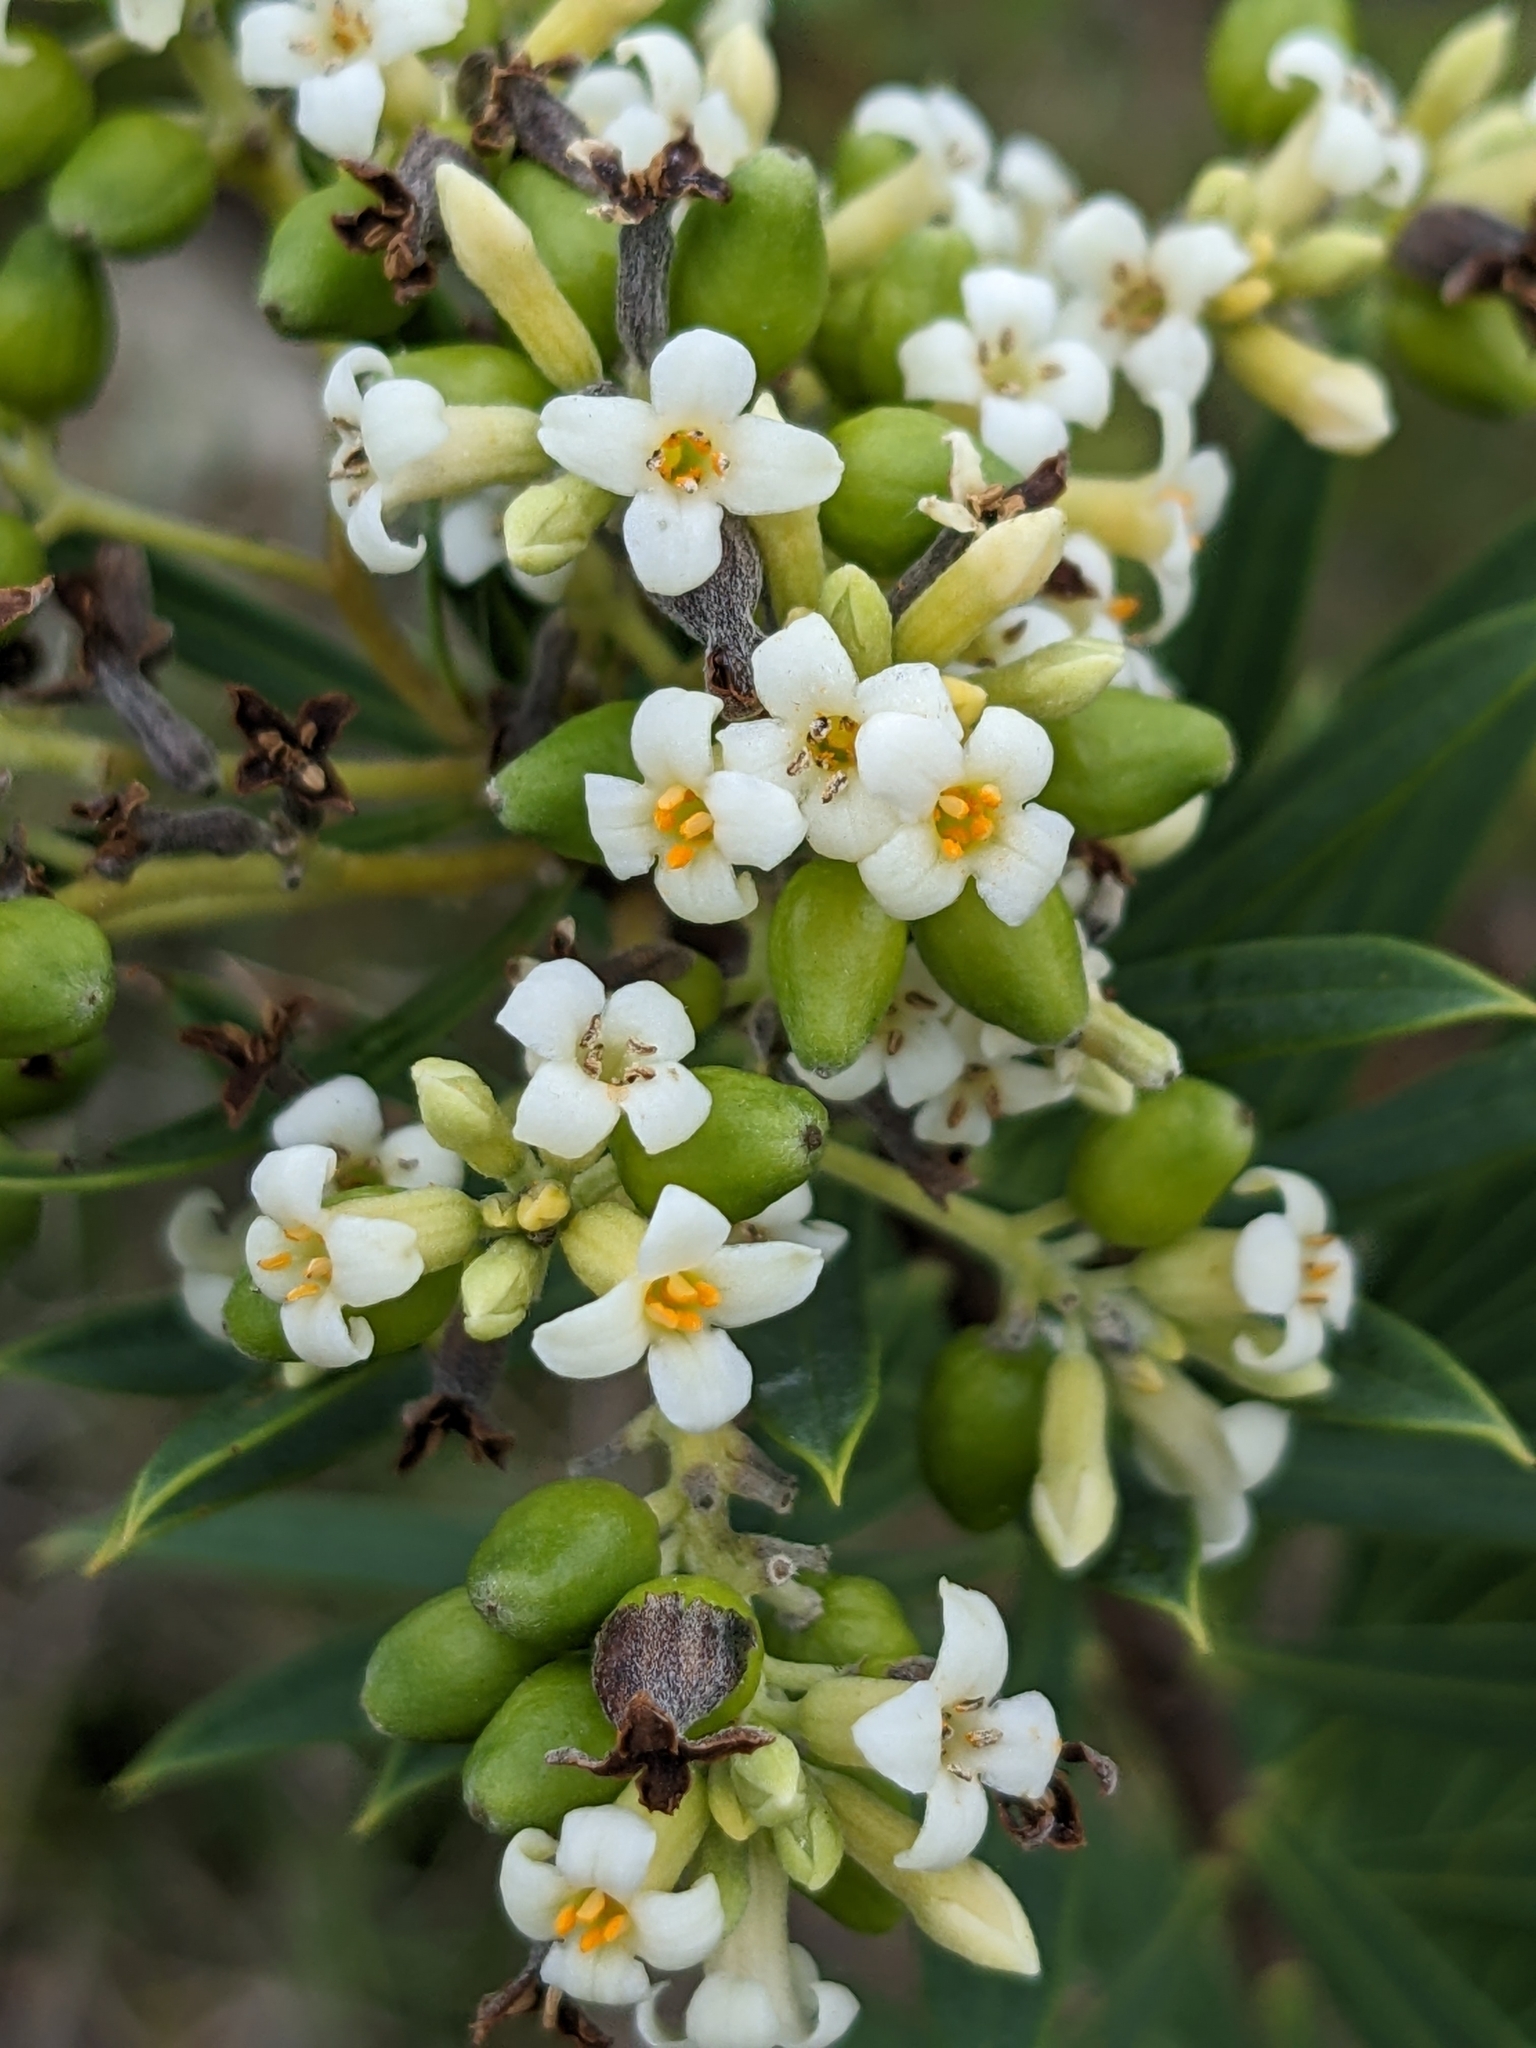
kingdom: Plantae
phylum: Tracheophyta
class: Magnoliopsida
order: Malvales
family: Thymelaeaceae
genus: Daphne
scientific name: Daphne gnidium
